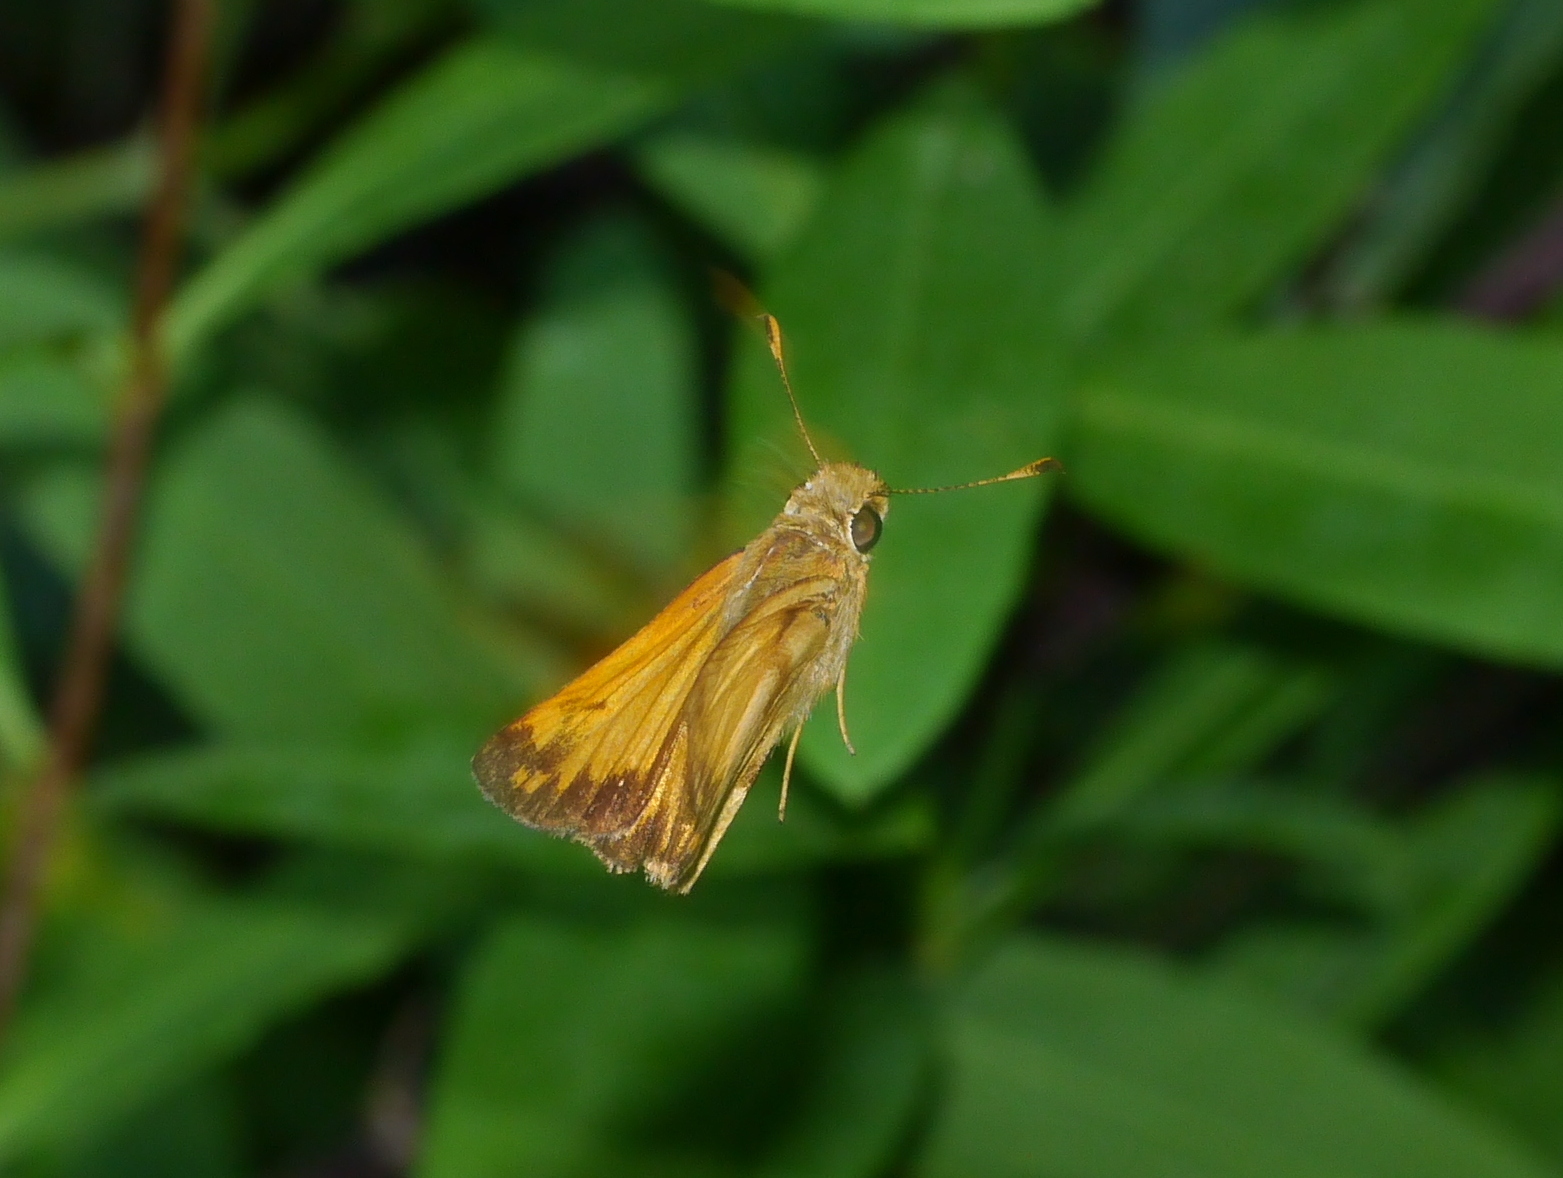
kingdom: Animalia
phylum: Arthropoda
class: Insecta
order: Lepidoptera
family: Hesperiidae
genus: Lon
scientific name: Lon zabulon
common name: Zabulon skipper
